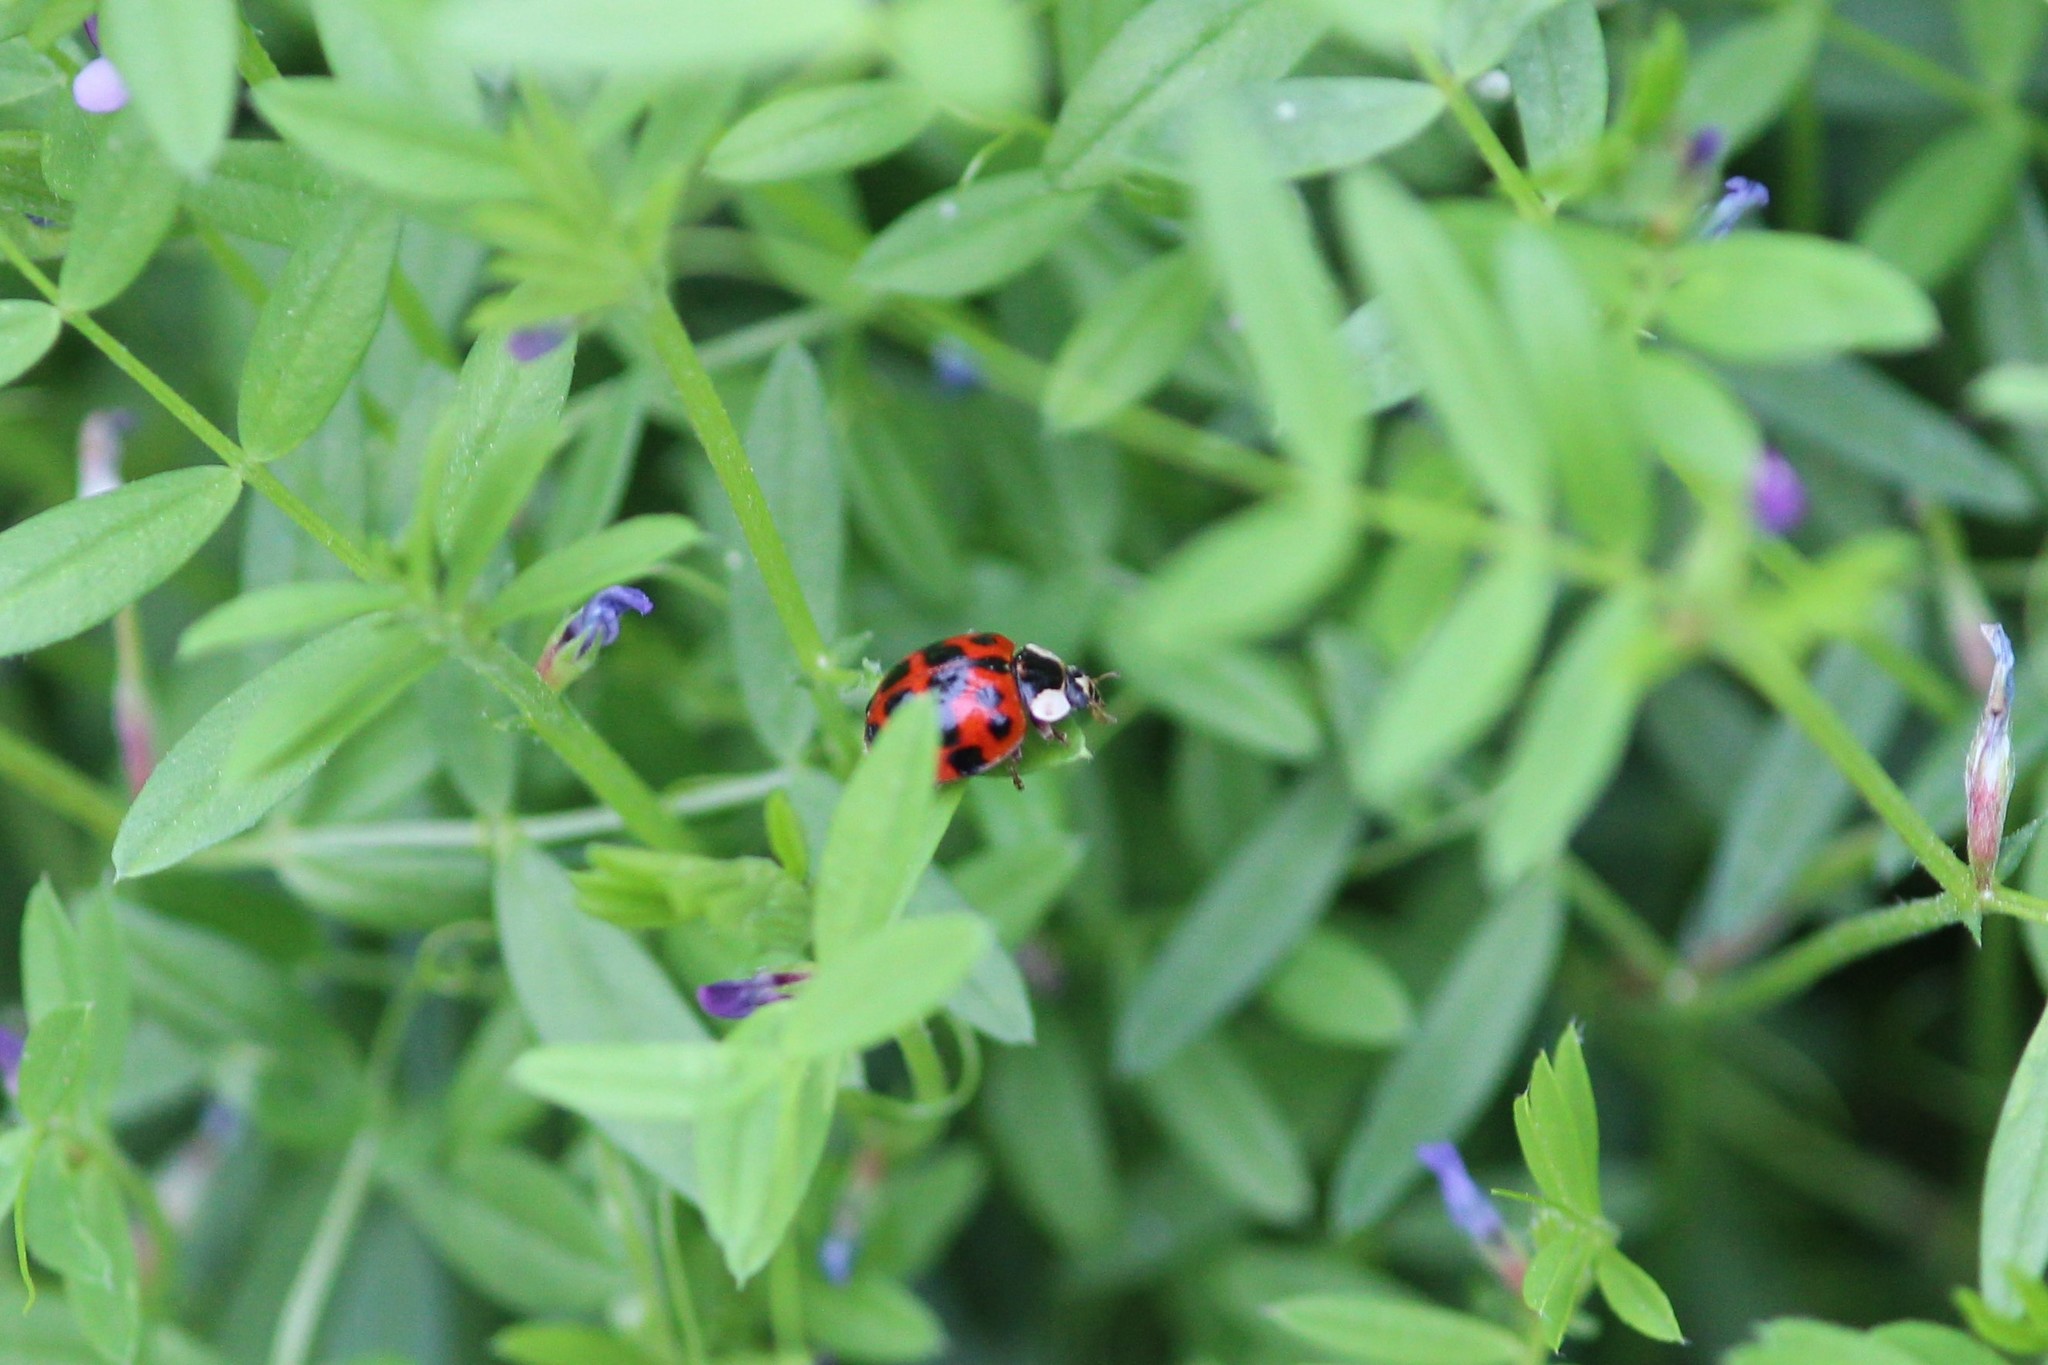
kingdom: Animalia
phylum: Arthropoda
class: Insecta
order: Coleoptera
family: Coccinellidae
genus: Harmonia
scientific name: Harmonia axyridis
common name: Harlequin ladybird
